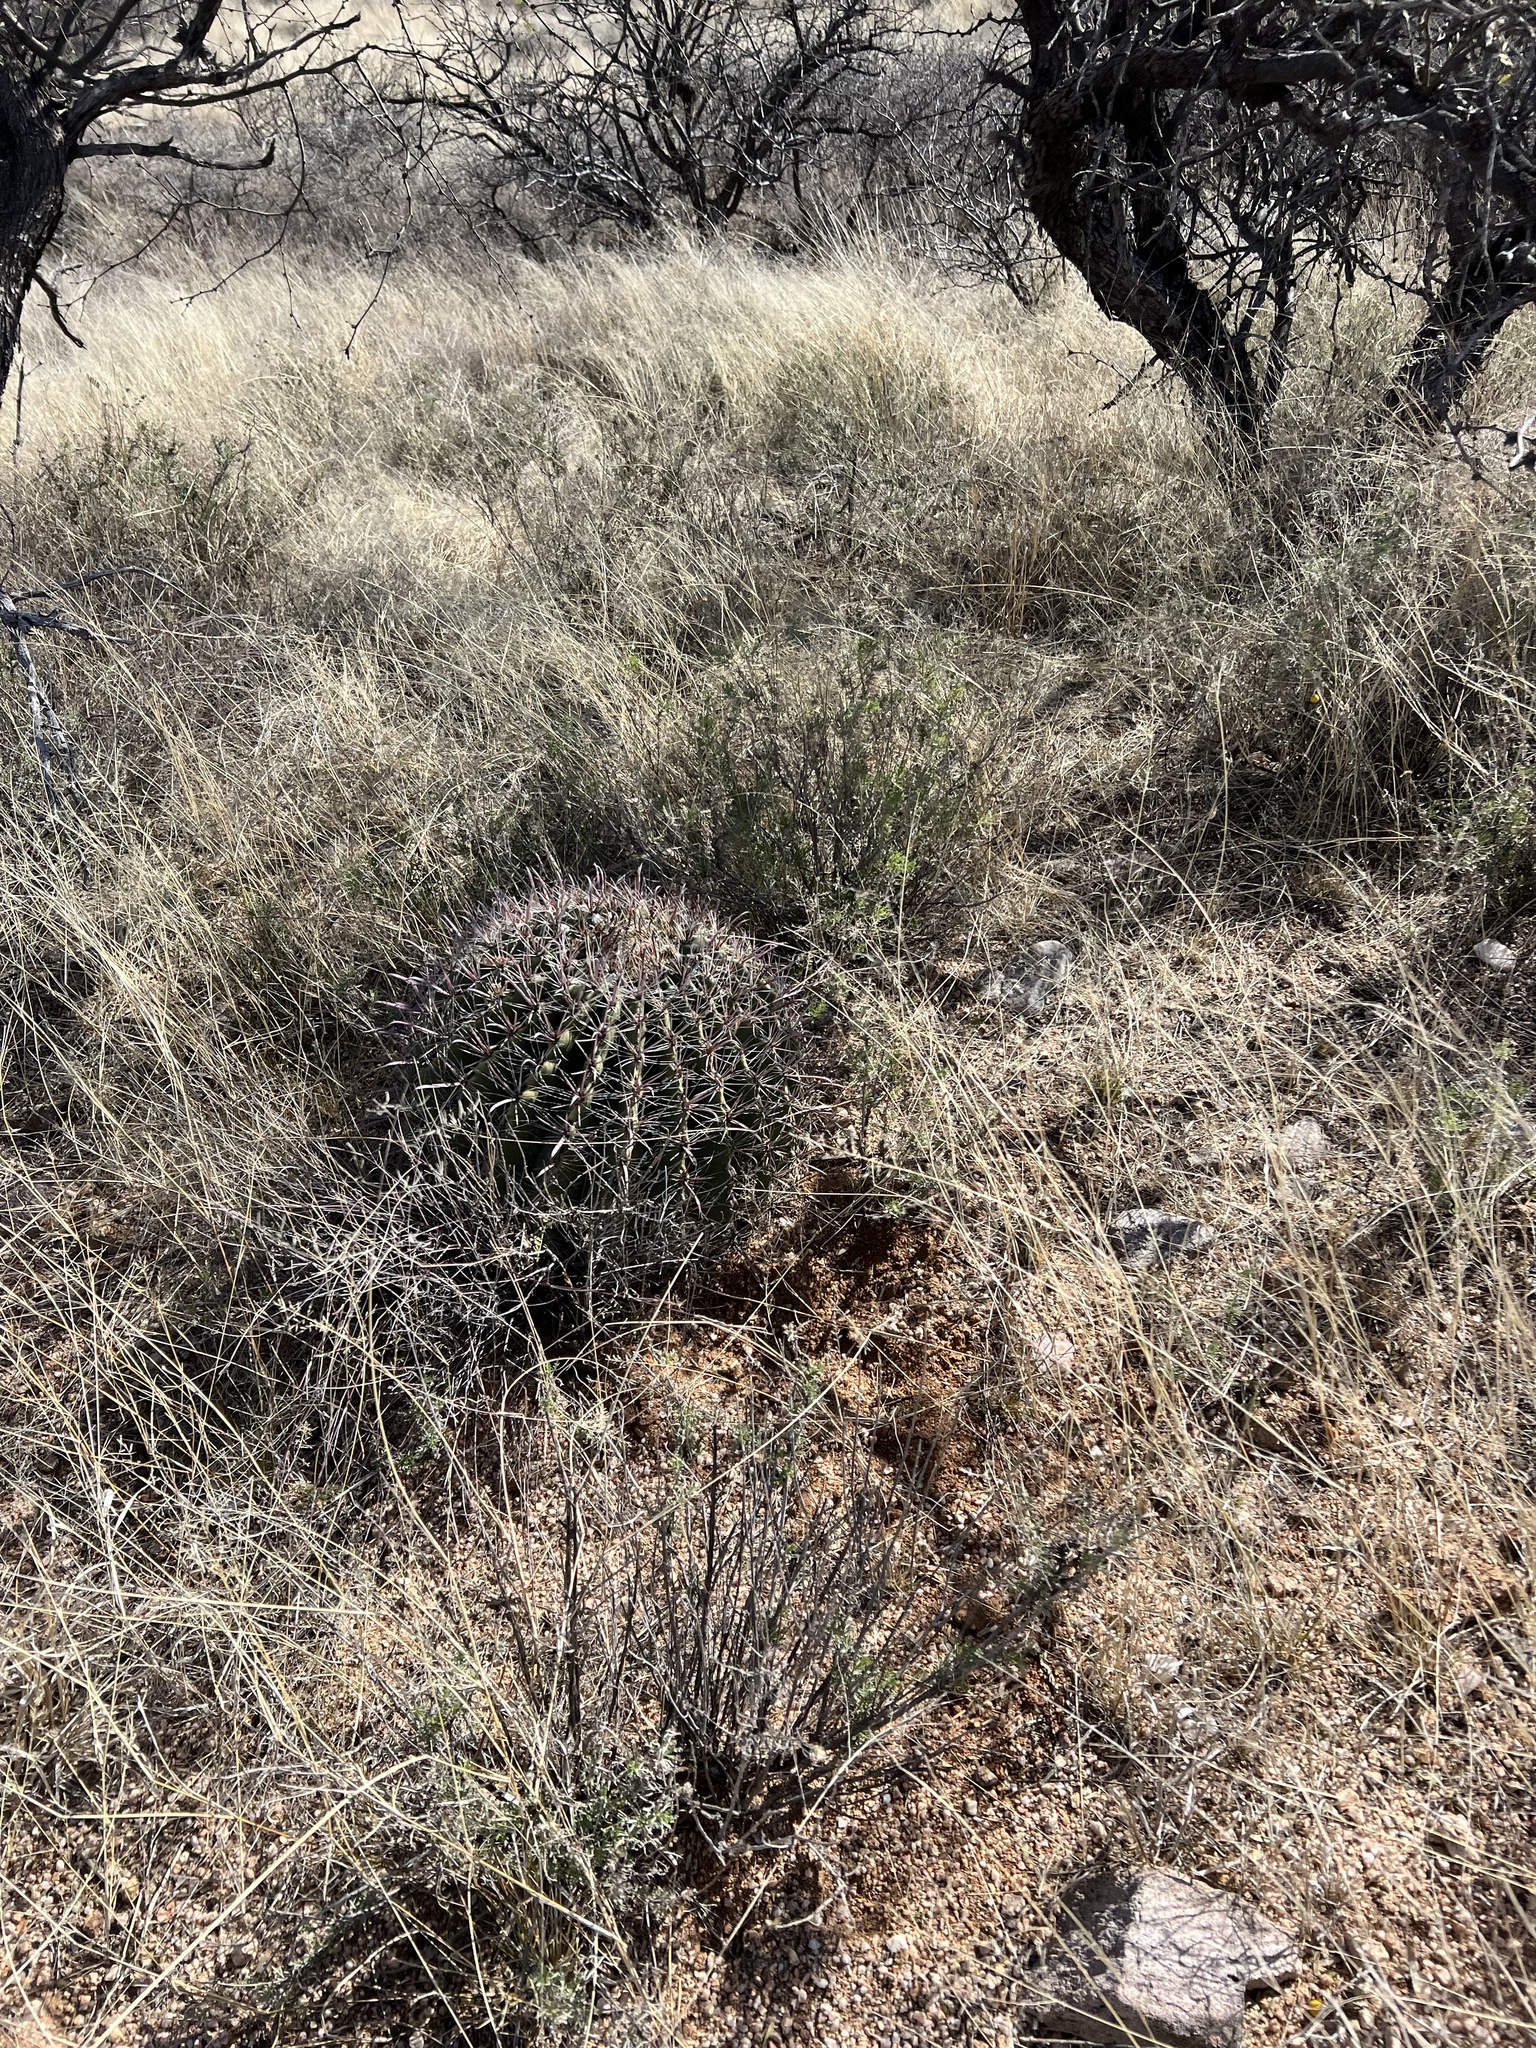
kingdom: Plantae
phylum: Tracheophyta
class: Magnoliopsida
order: Caryophyllales
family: Cactaceae
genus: Ferocactus
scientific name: Ferocactus wislizeni
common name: Candy barrel cactus
